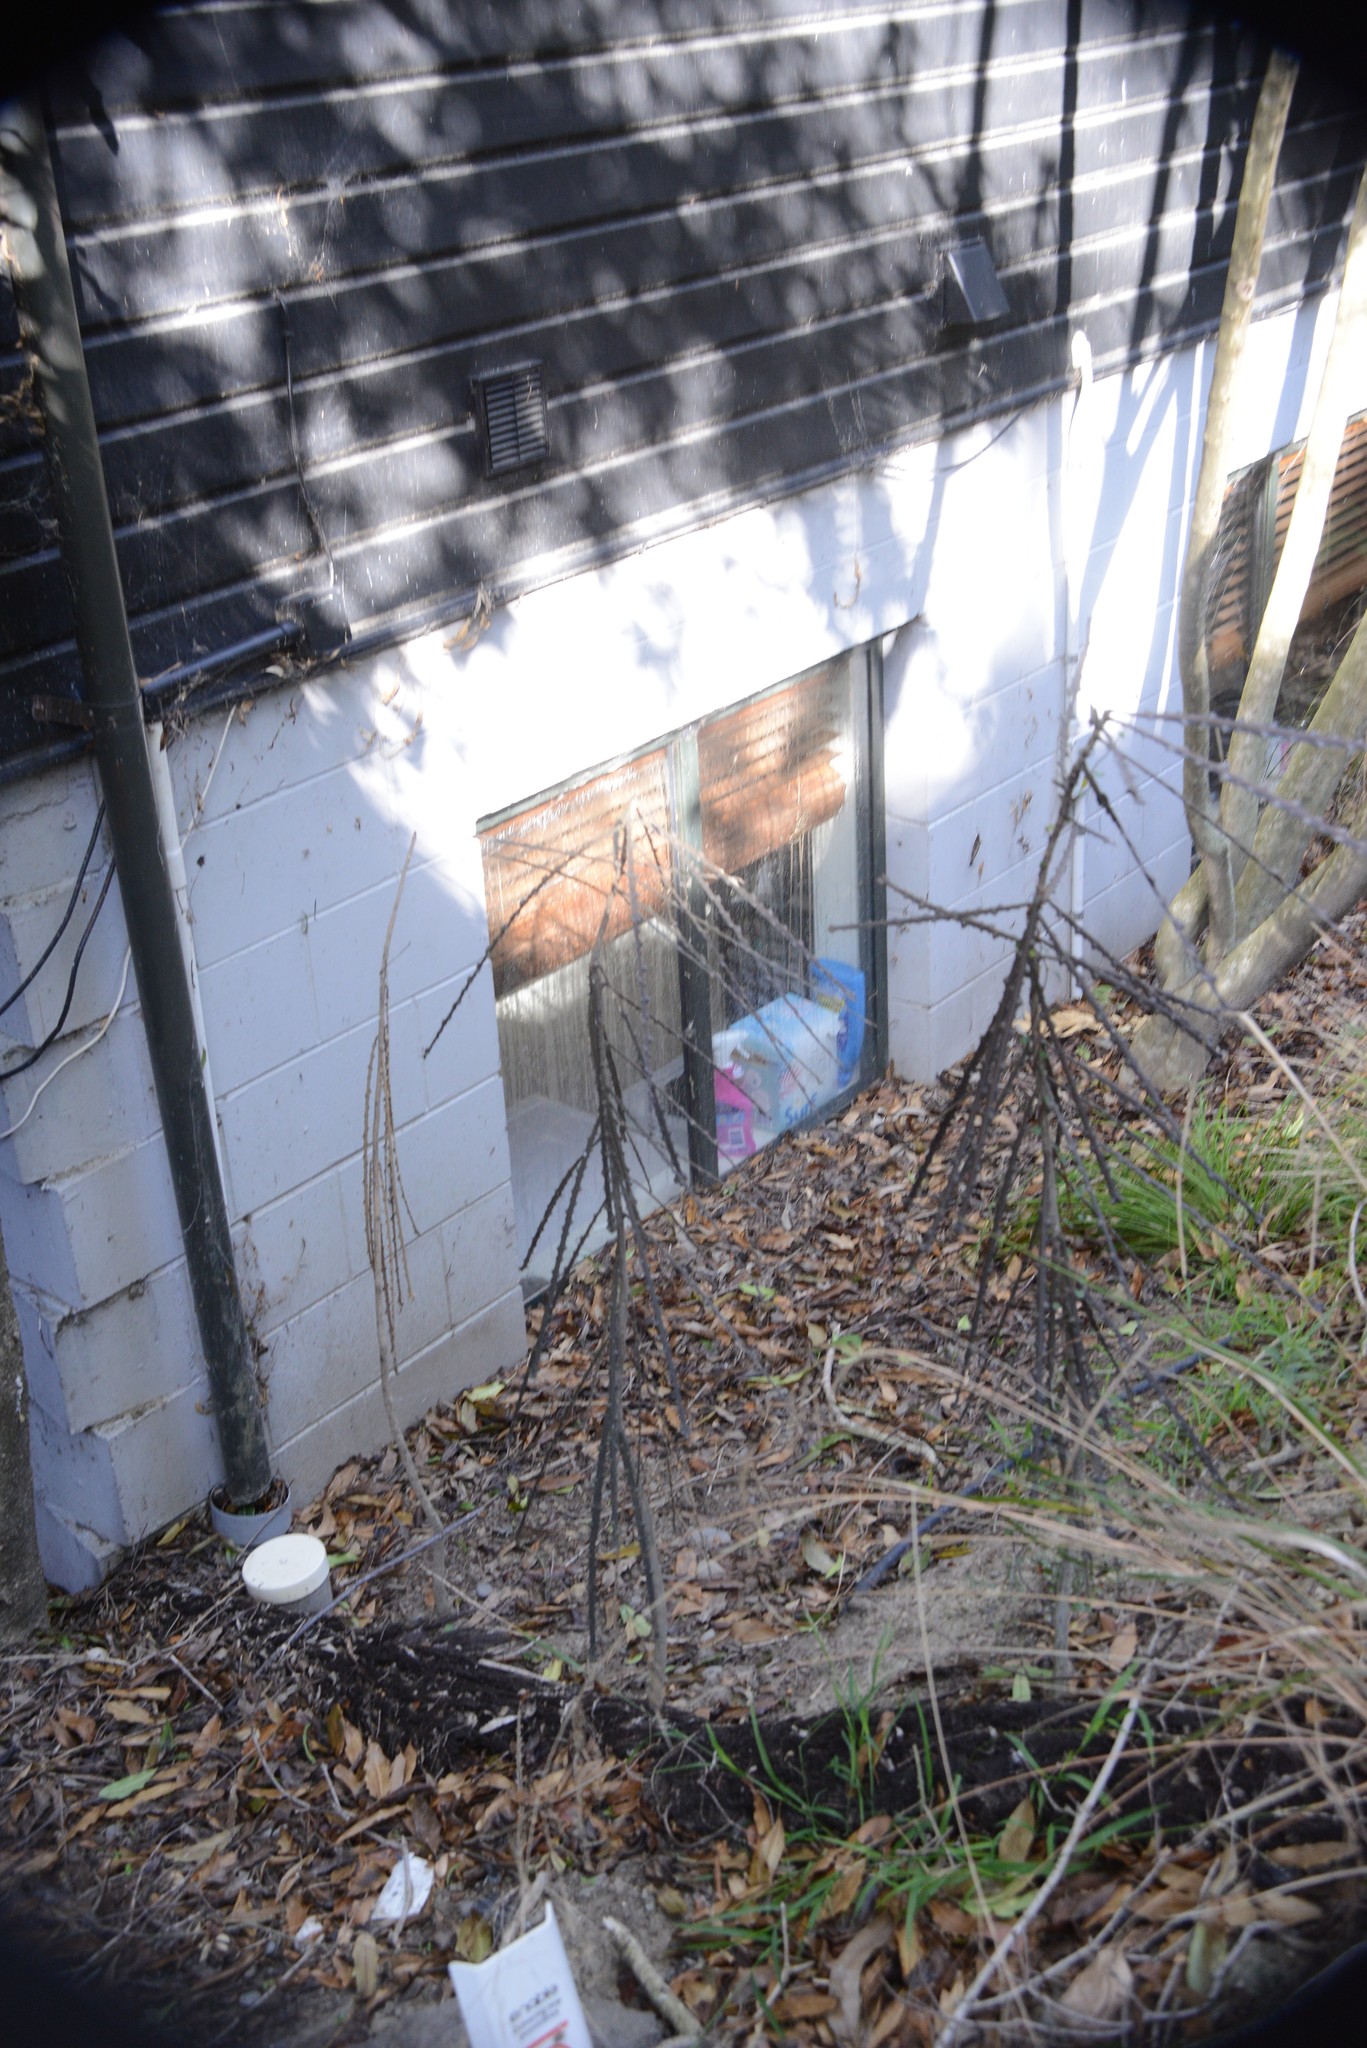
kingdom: Plantae
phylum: Tracheophyta
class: Magnoliopsida
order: Apiales
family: Araliaceae
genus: Pseudopanax
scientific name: Pseudopanax ferox
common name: Fierce lancewood
